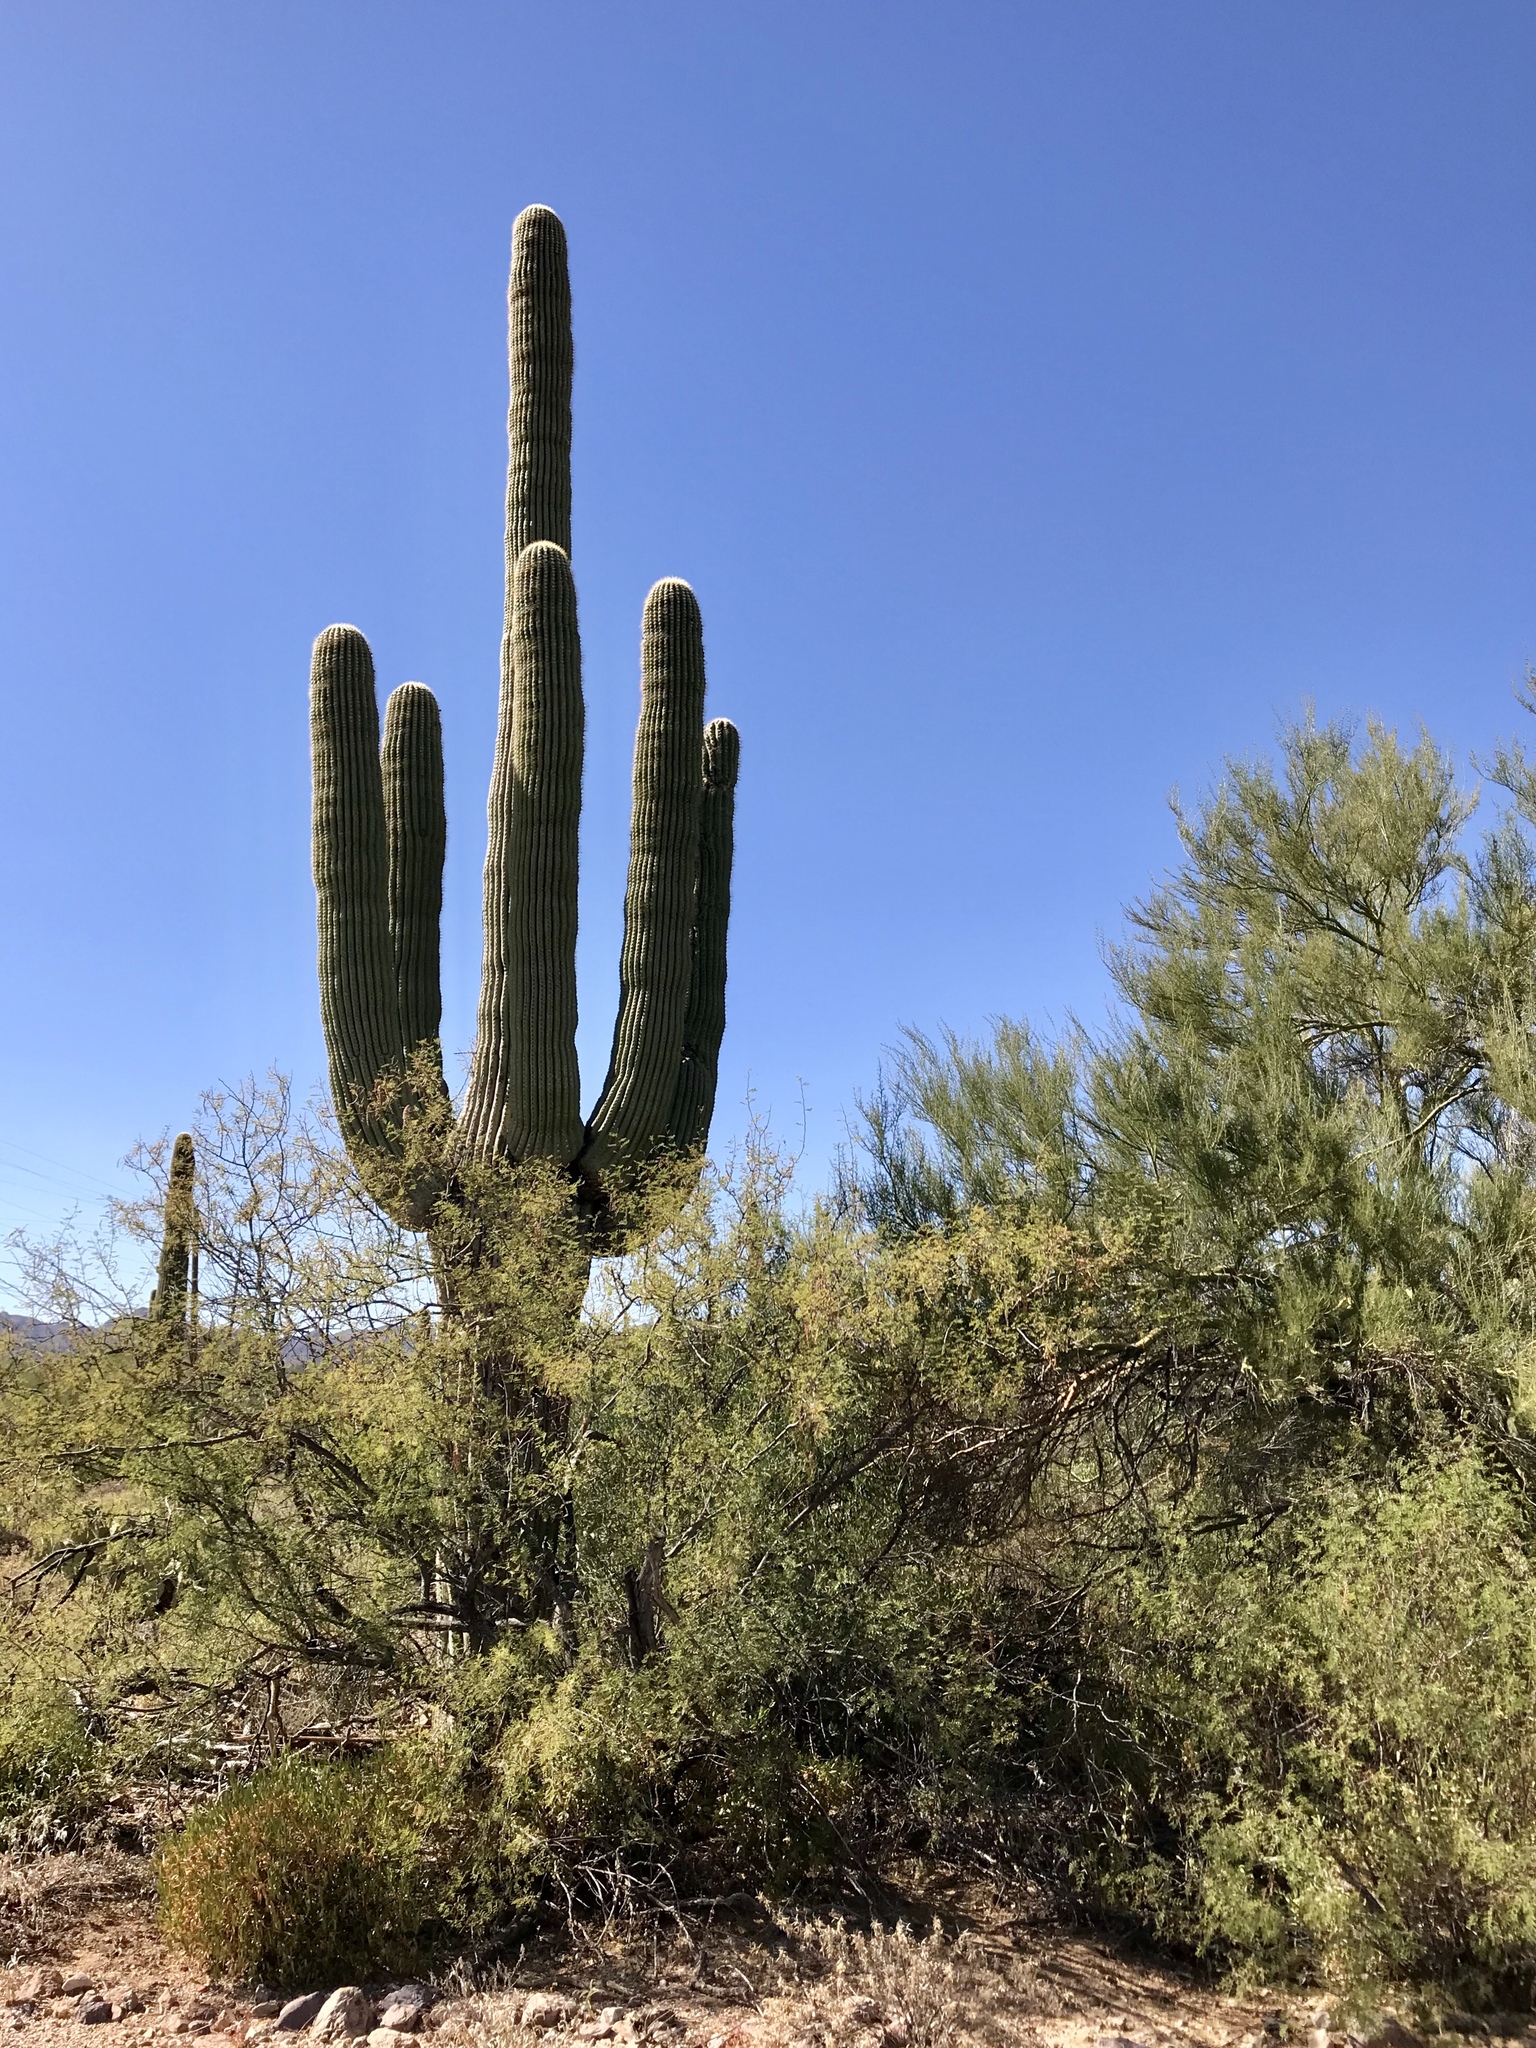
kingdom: Plantae
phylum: Tracheophyta
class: Magnoliopsida
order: Caryophyllales
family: Cactaceae
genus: Carnegiea
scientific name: Carnegiea gigantea
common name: Saguaro
